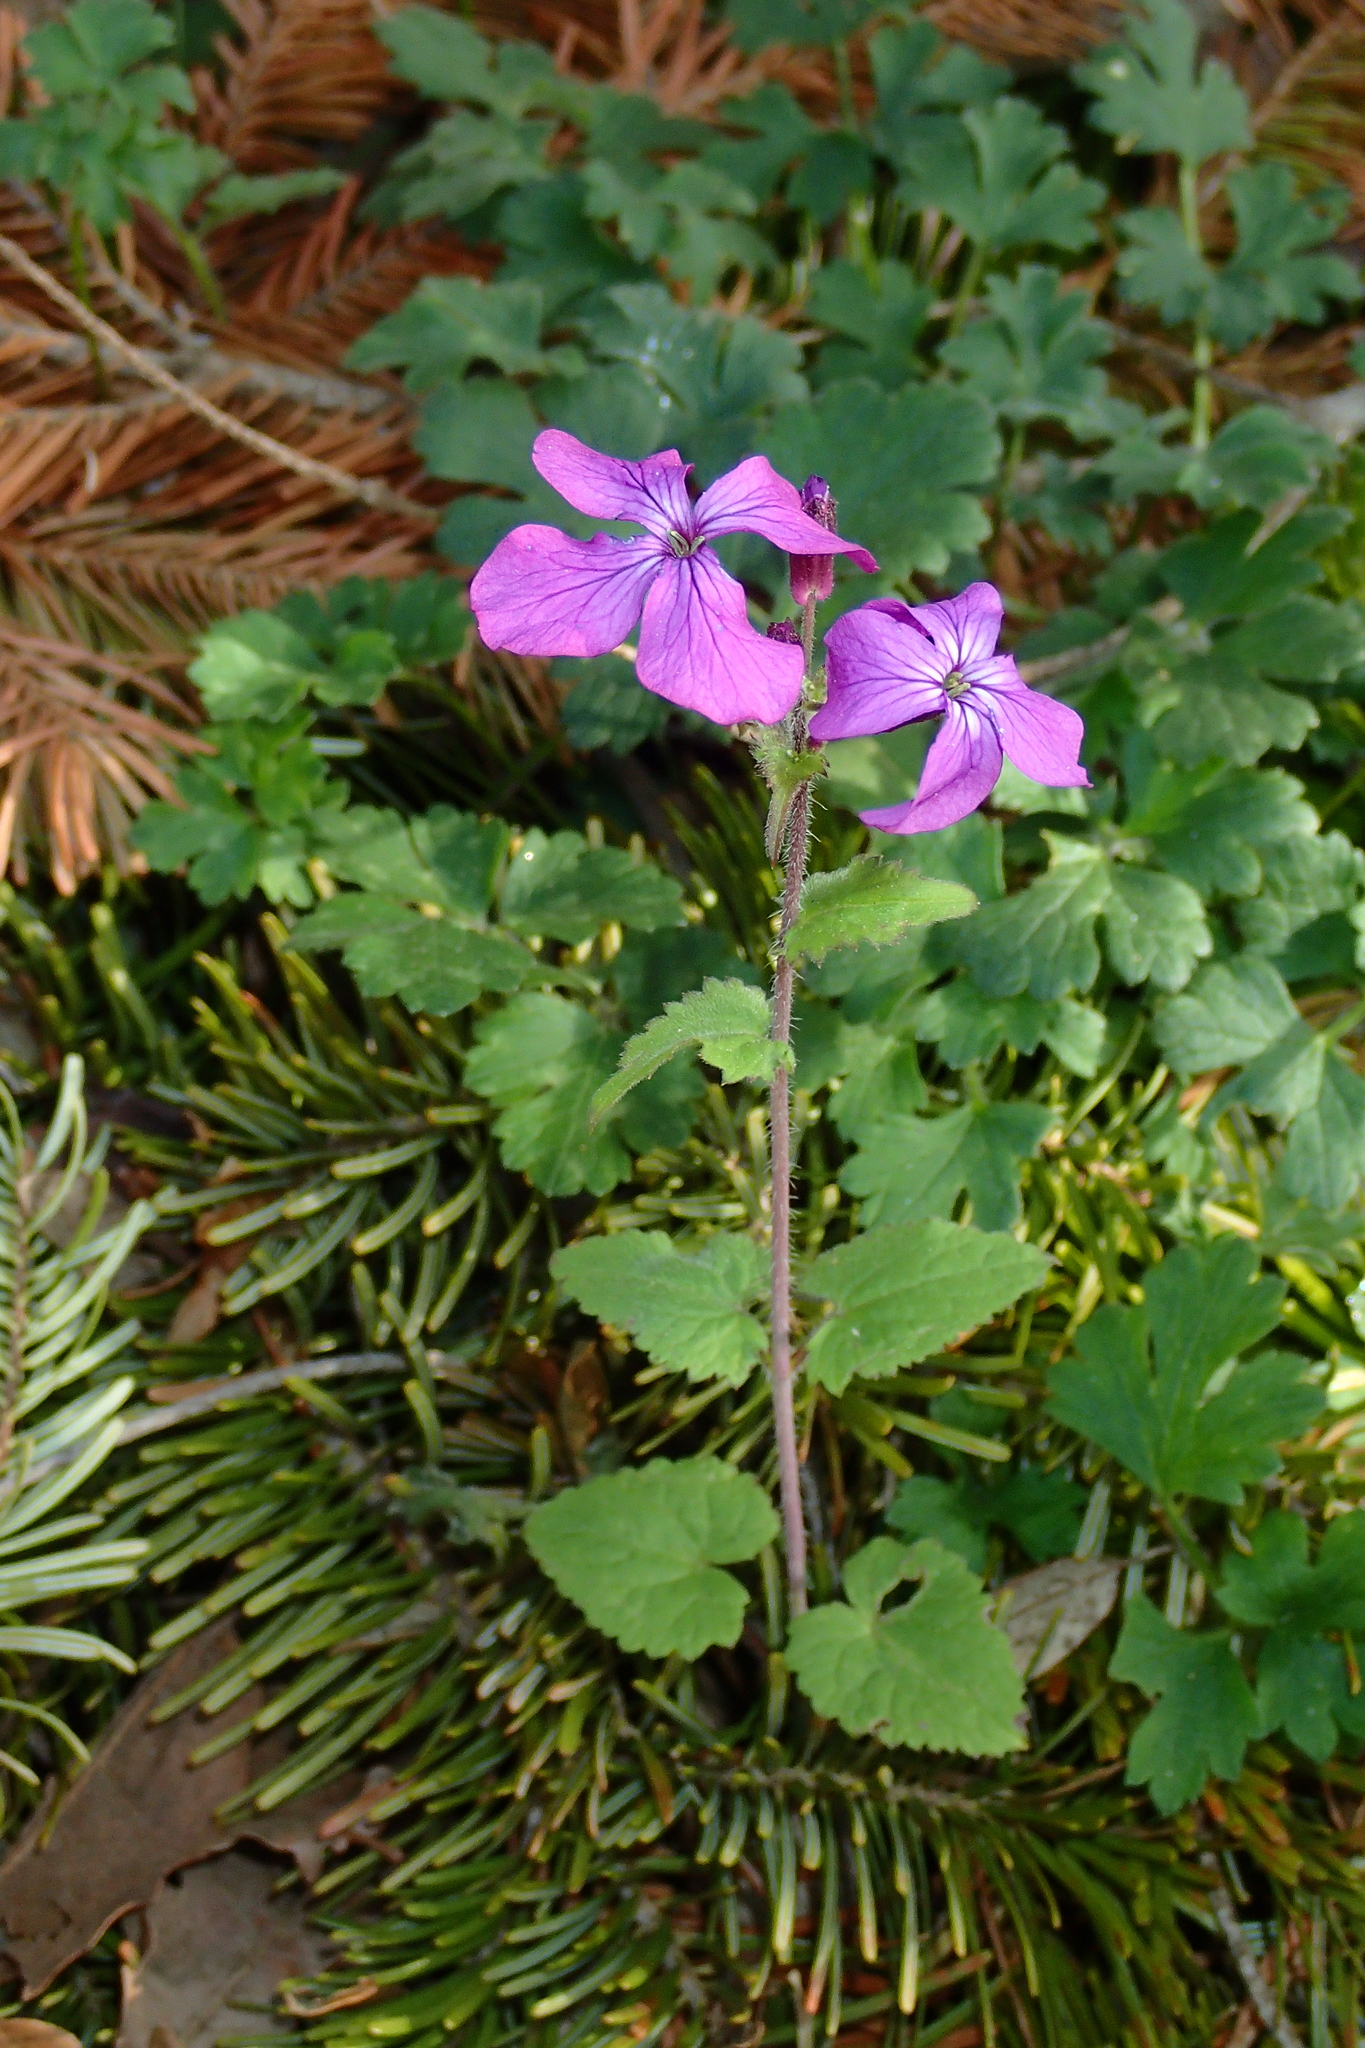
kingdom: Plantae
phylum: Tracheophyta
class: Magnoliopsida
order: Brassicales
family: Brassicaceae
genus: Lunaria
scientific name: Lunaria annua
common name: Honesty
